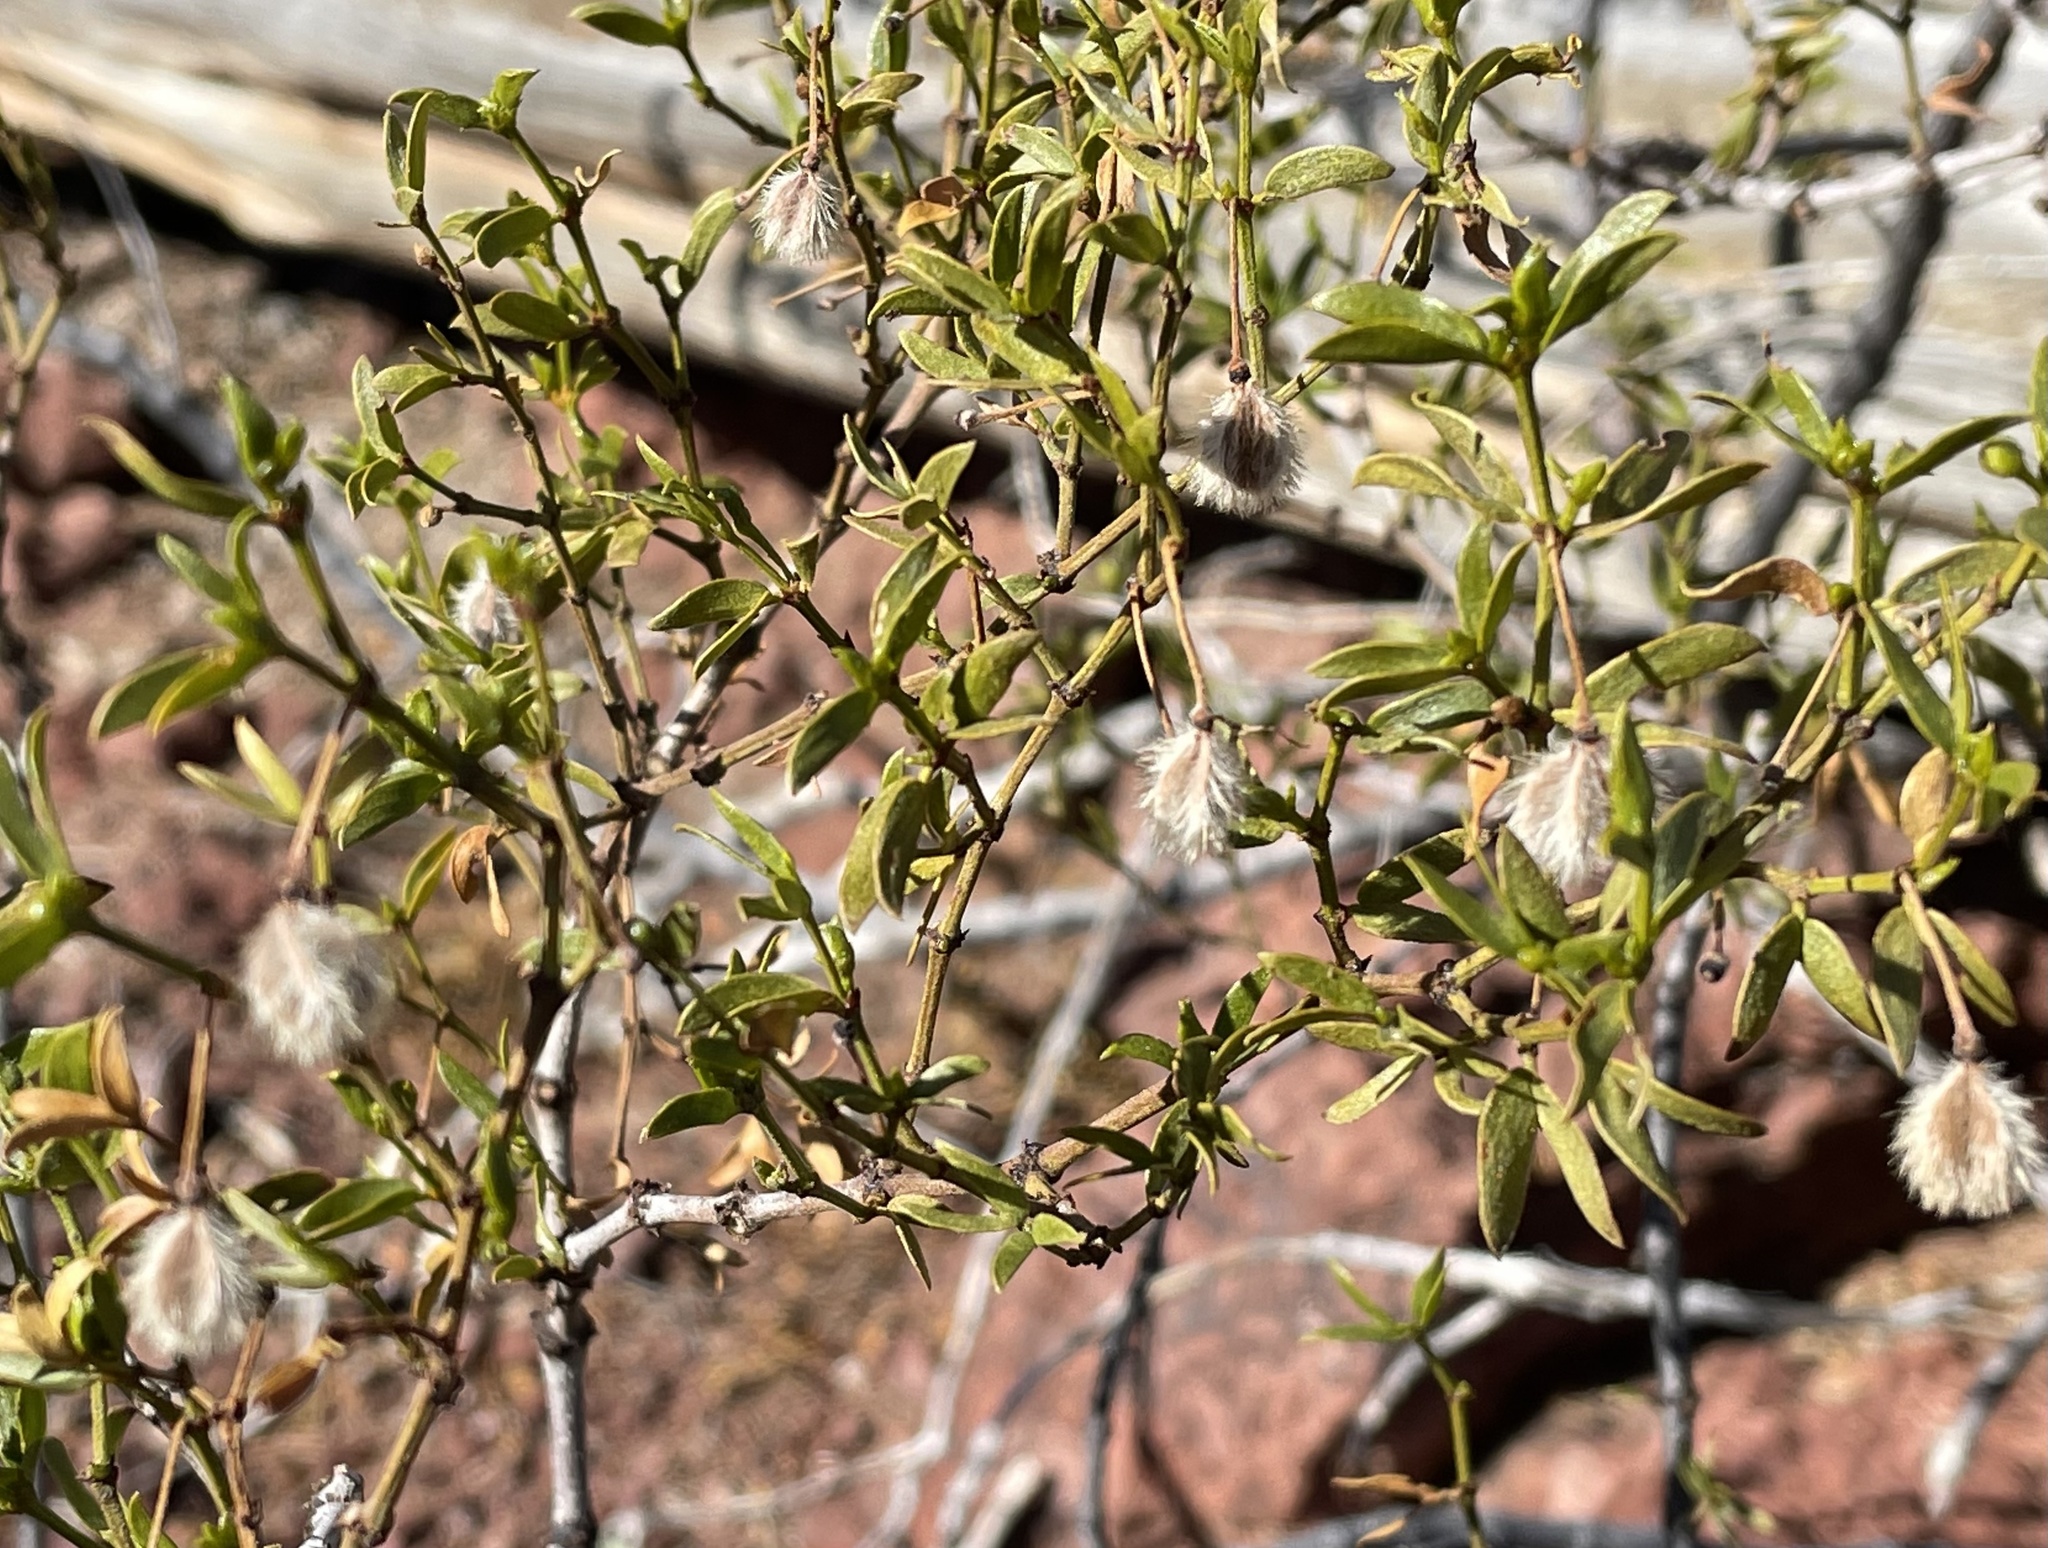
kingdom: Animalia
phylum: Arthropoda
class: Insecta
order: Diptera
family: Cecidomyiidae
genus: Asphondylia
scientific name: Asphondylia auripila
